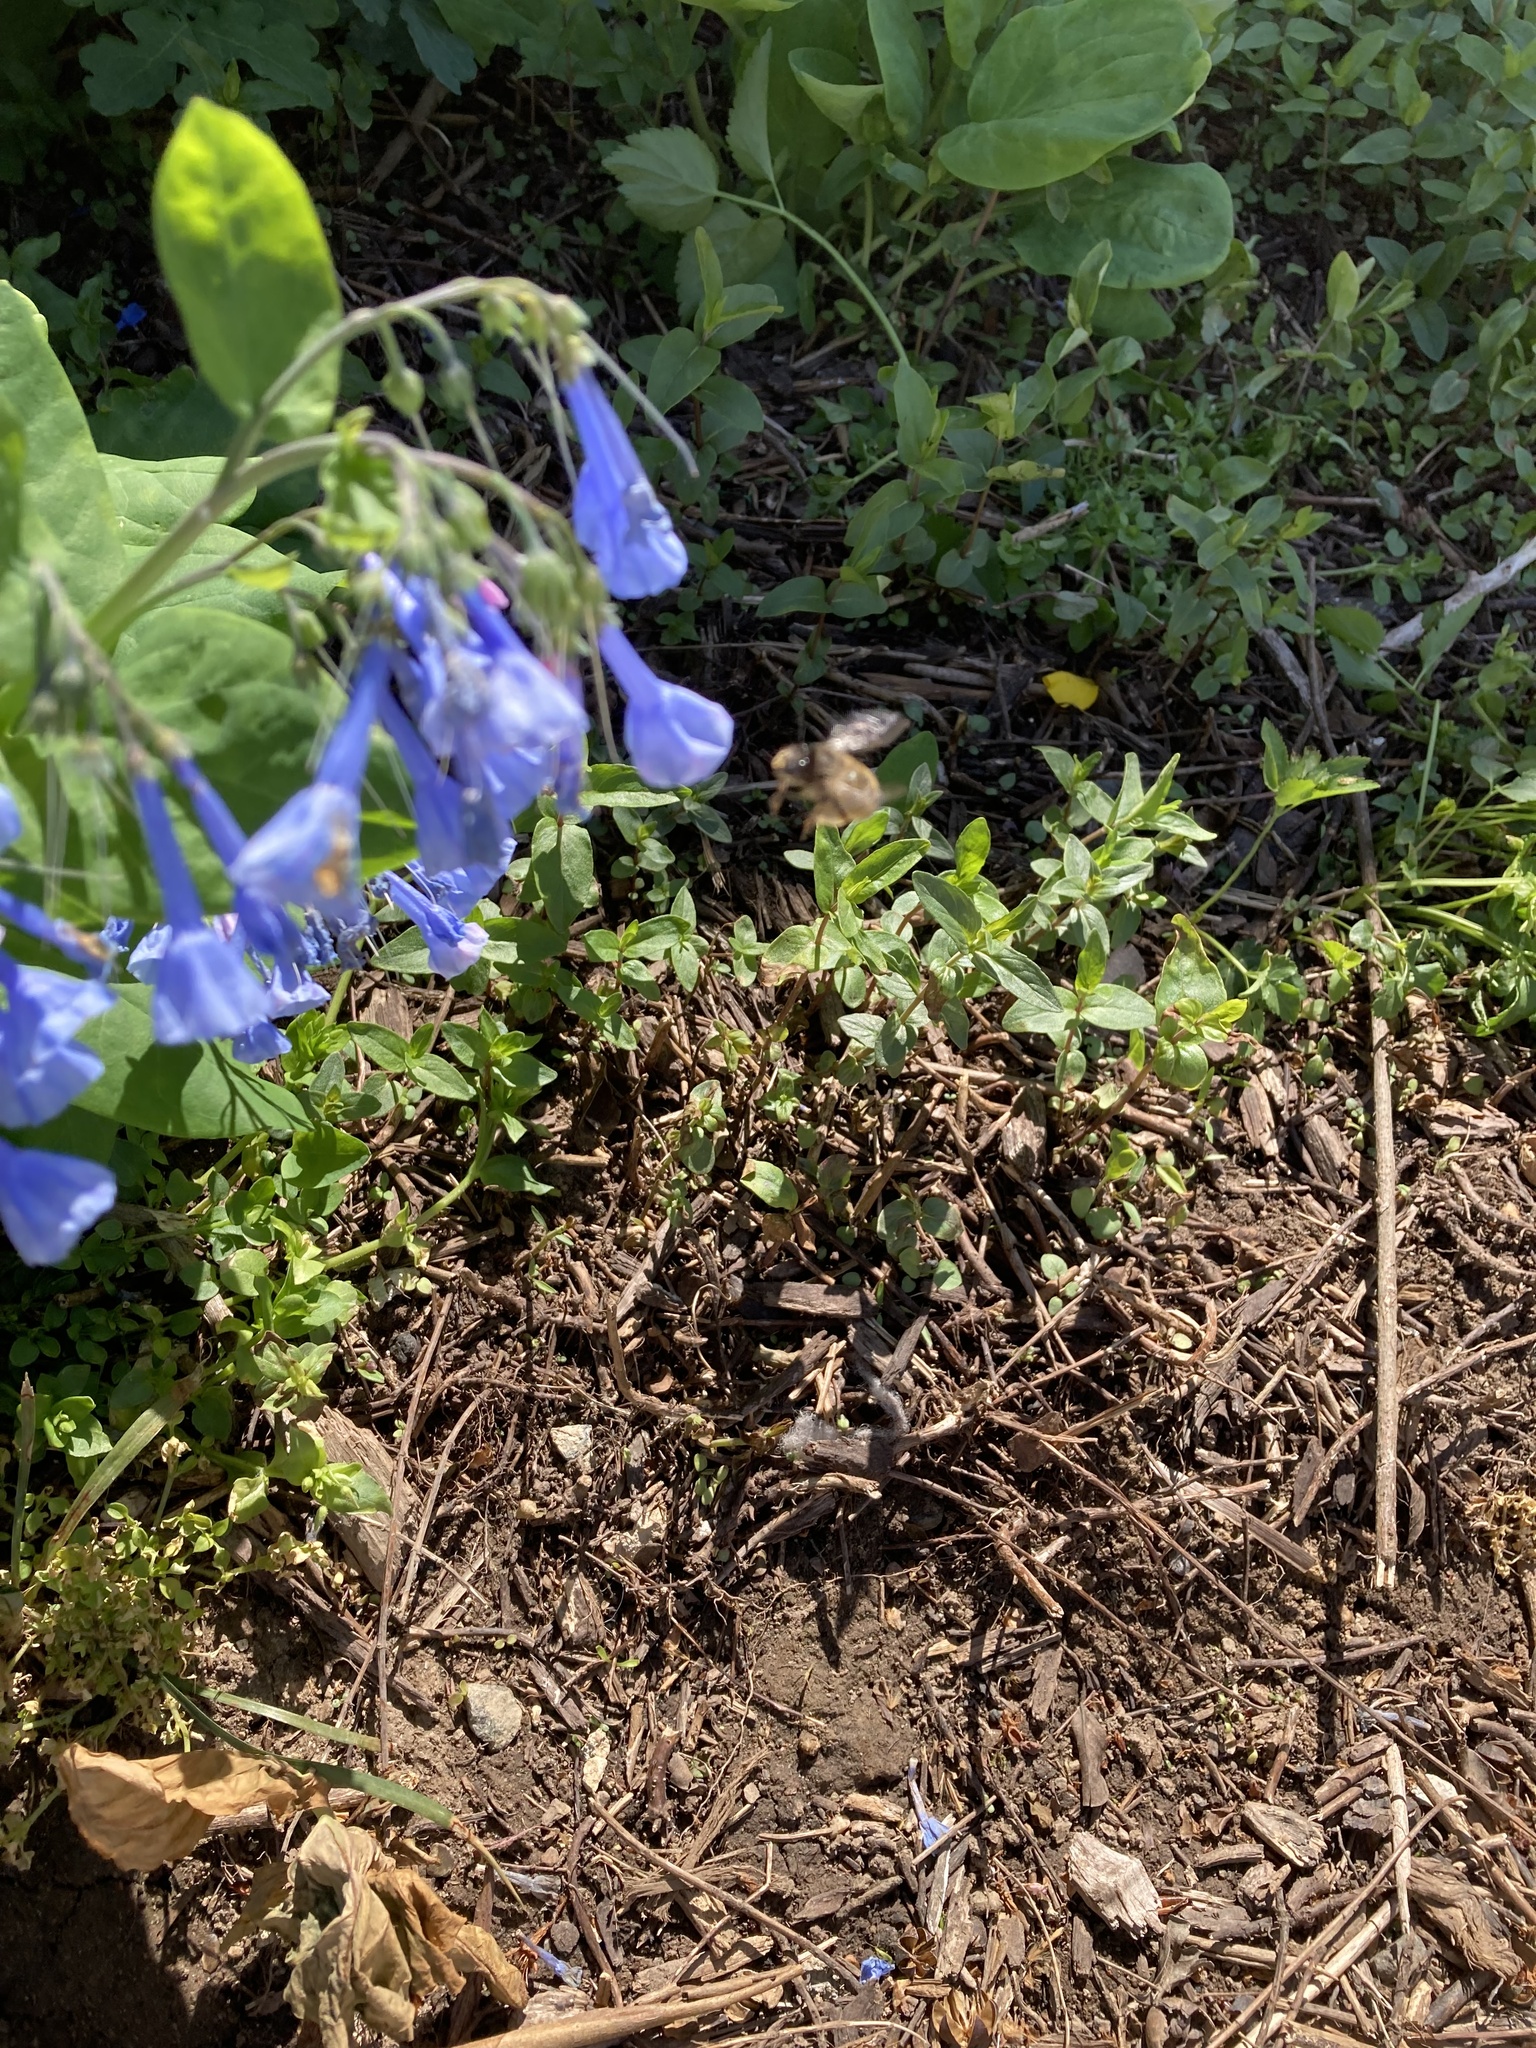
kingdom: Plantae
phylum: Tracheophyta
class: Magnoliopsida
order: Boraginales
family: Boraginaceae
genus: Mertensia
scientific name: Mertensia virginica
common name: Virginia bluebells
